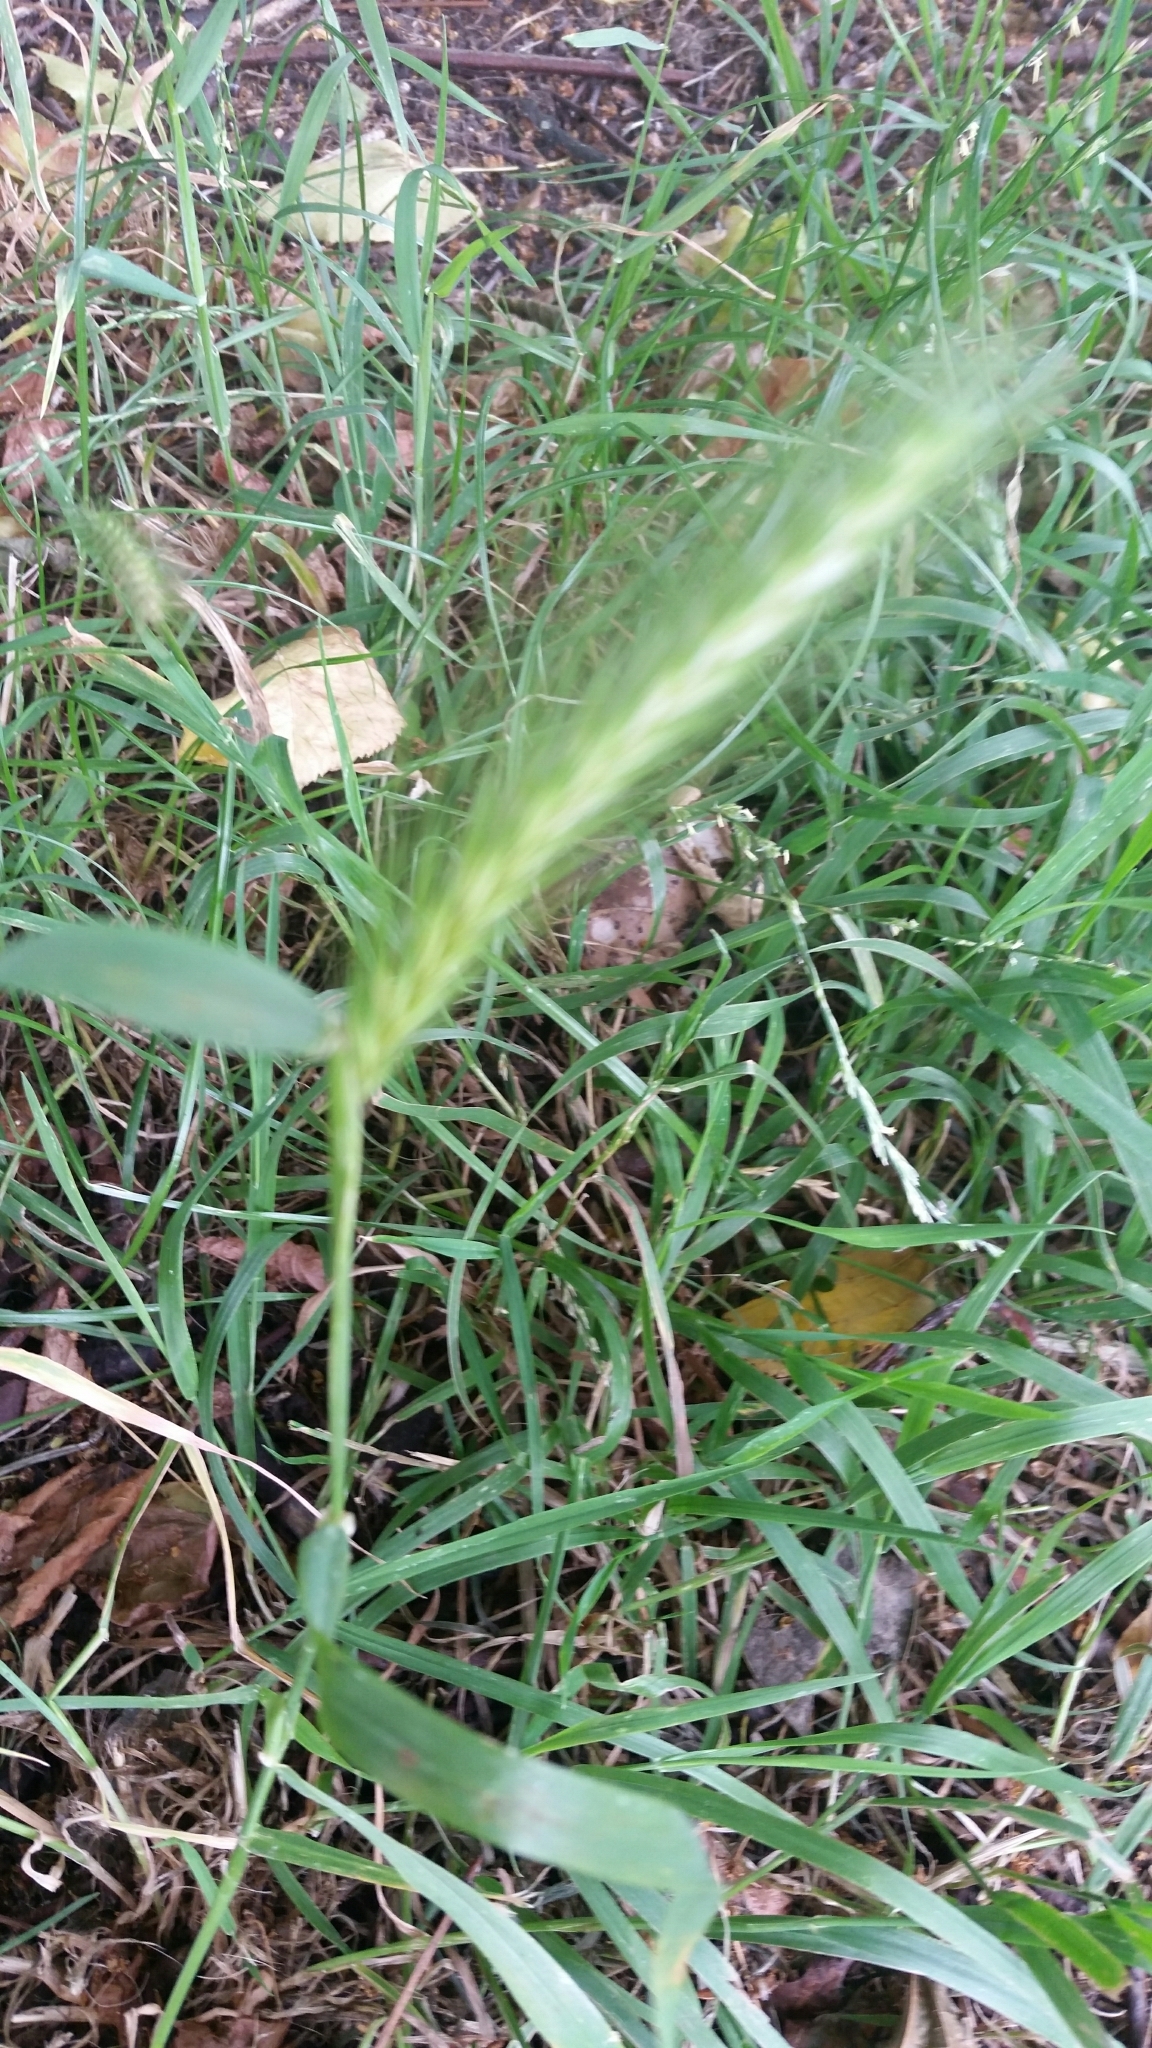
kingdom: Plantae
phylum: Tracheophyta
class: Liliopsida
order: Poales
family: Poaceae
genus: Hordeum
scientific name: Hordeum murinum
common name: Wall barley
